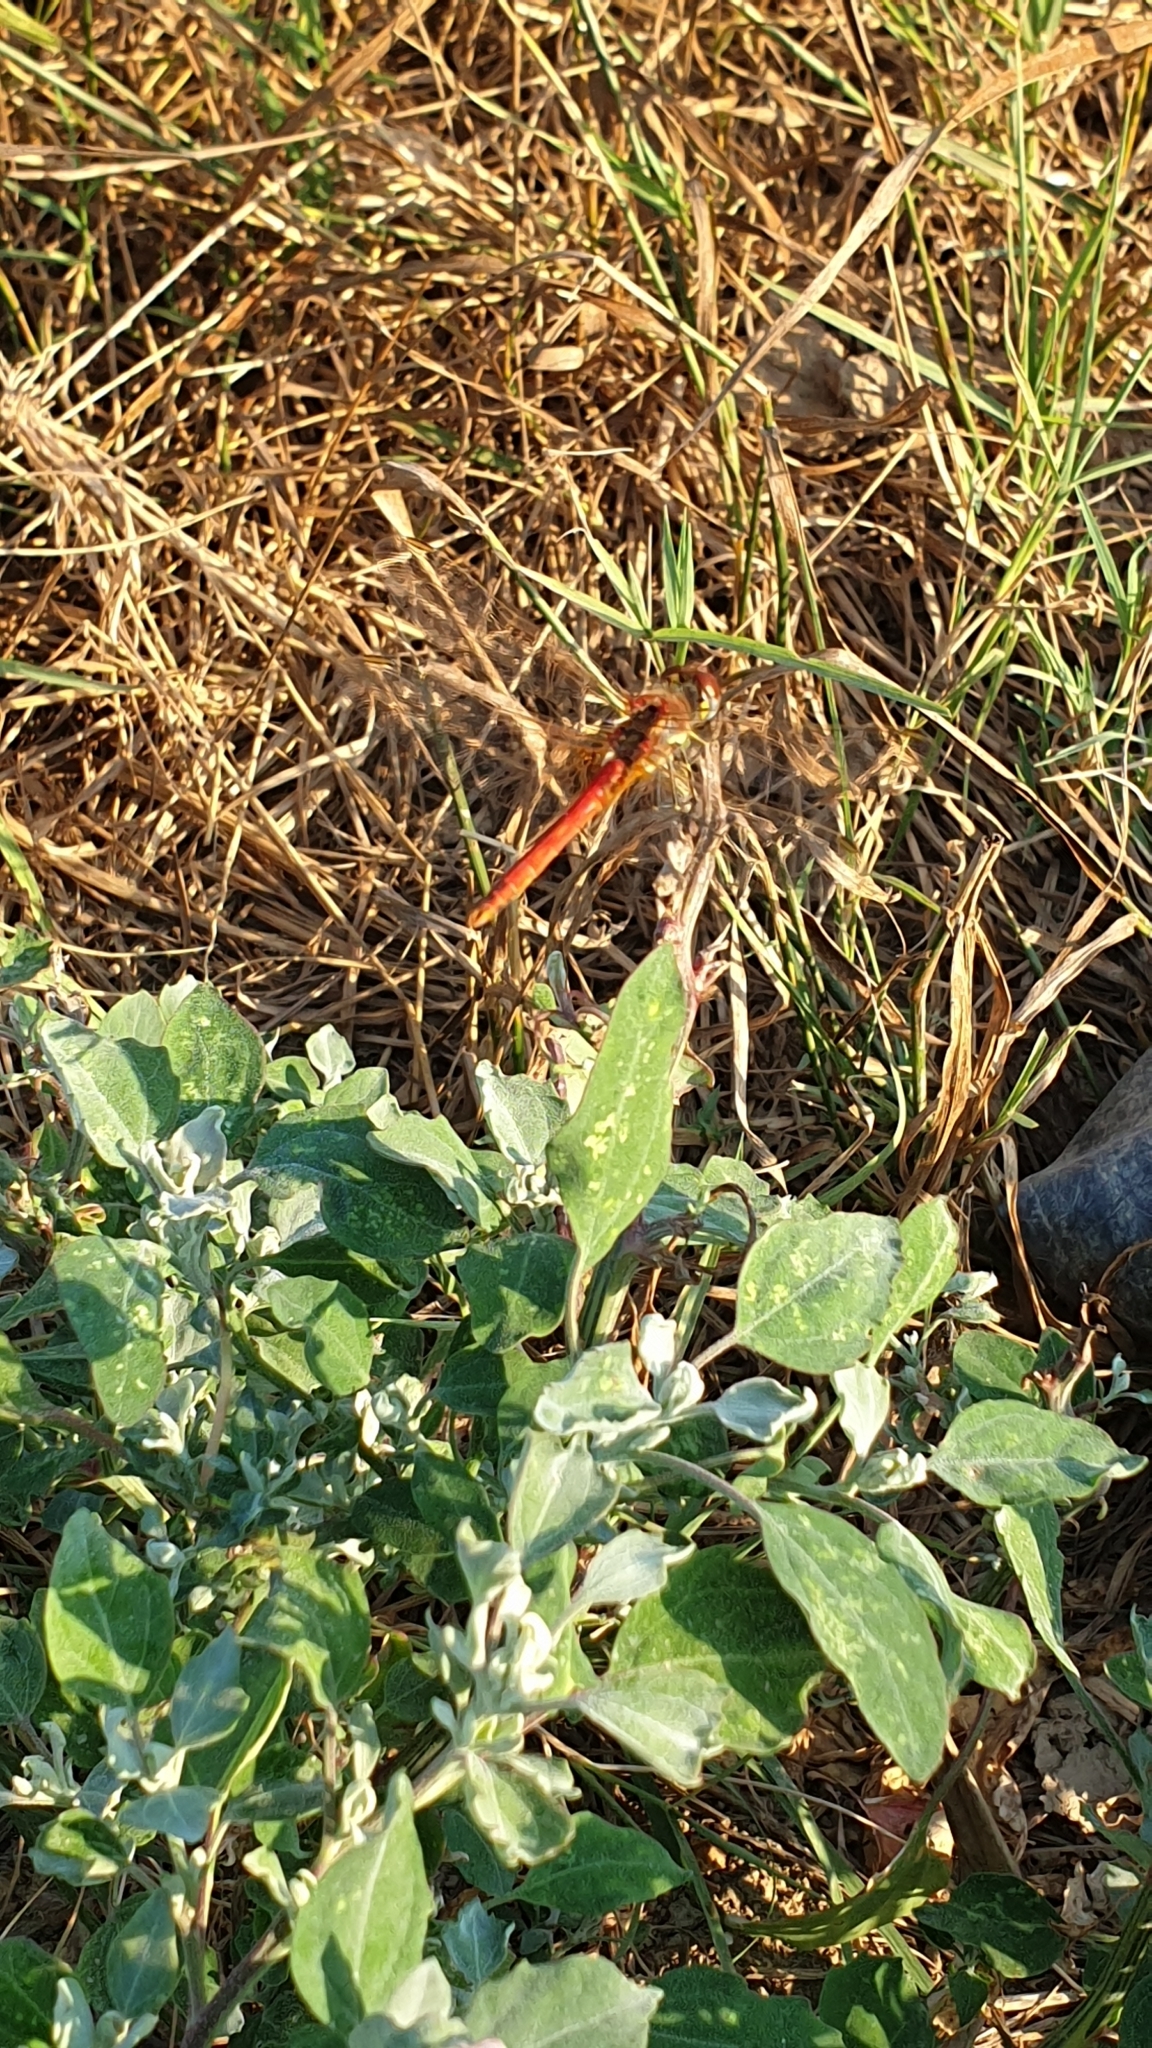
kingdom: Animalia
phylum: Arthropoda
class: Insecta
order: Odonata
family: Libellulidae
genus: Sympetrum
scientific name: Sympetrum fonscolombii
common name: Red-veined darter
